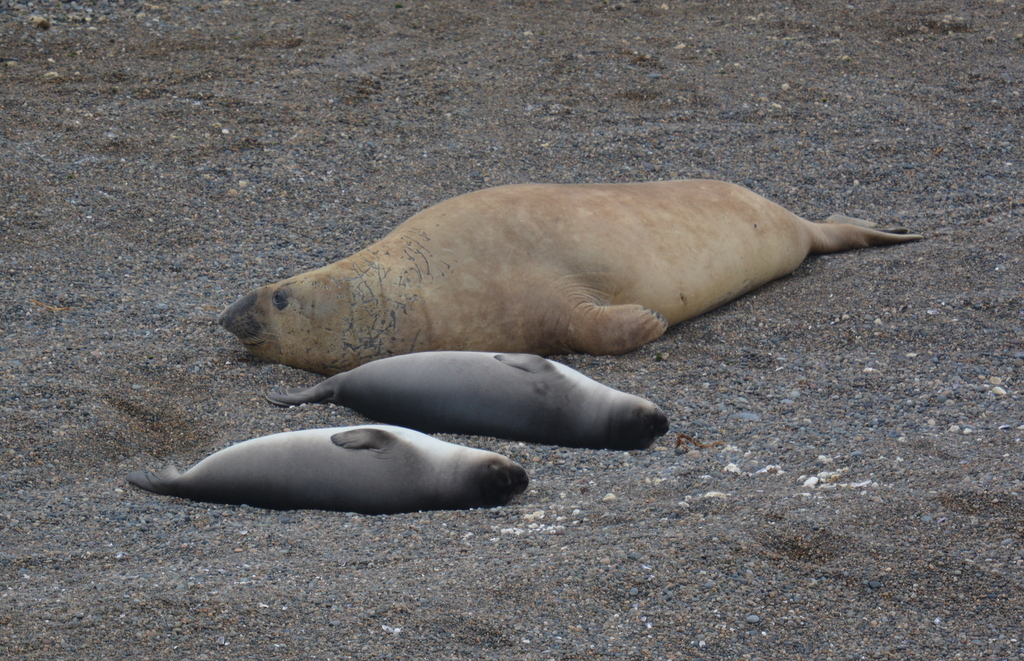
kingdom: Animalia
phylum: Chordata
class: Mammalia
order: Carnivora
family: Phocidae
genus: Mirounga
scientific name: Mirounga leonina
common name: Southern elephant seal
